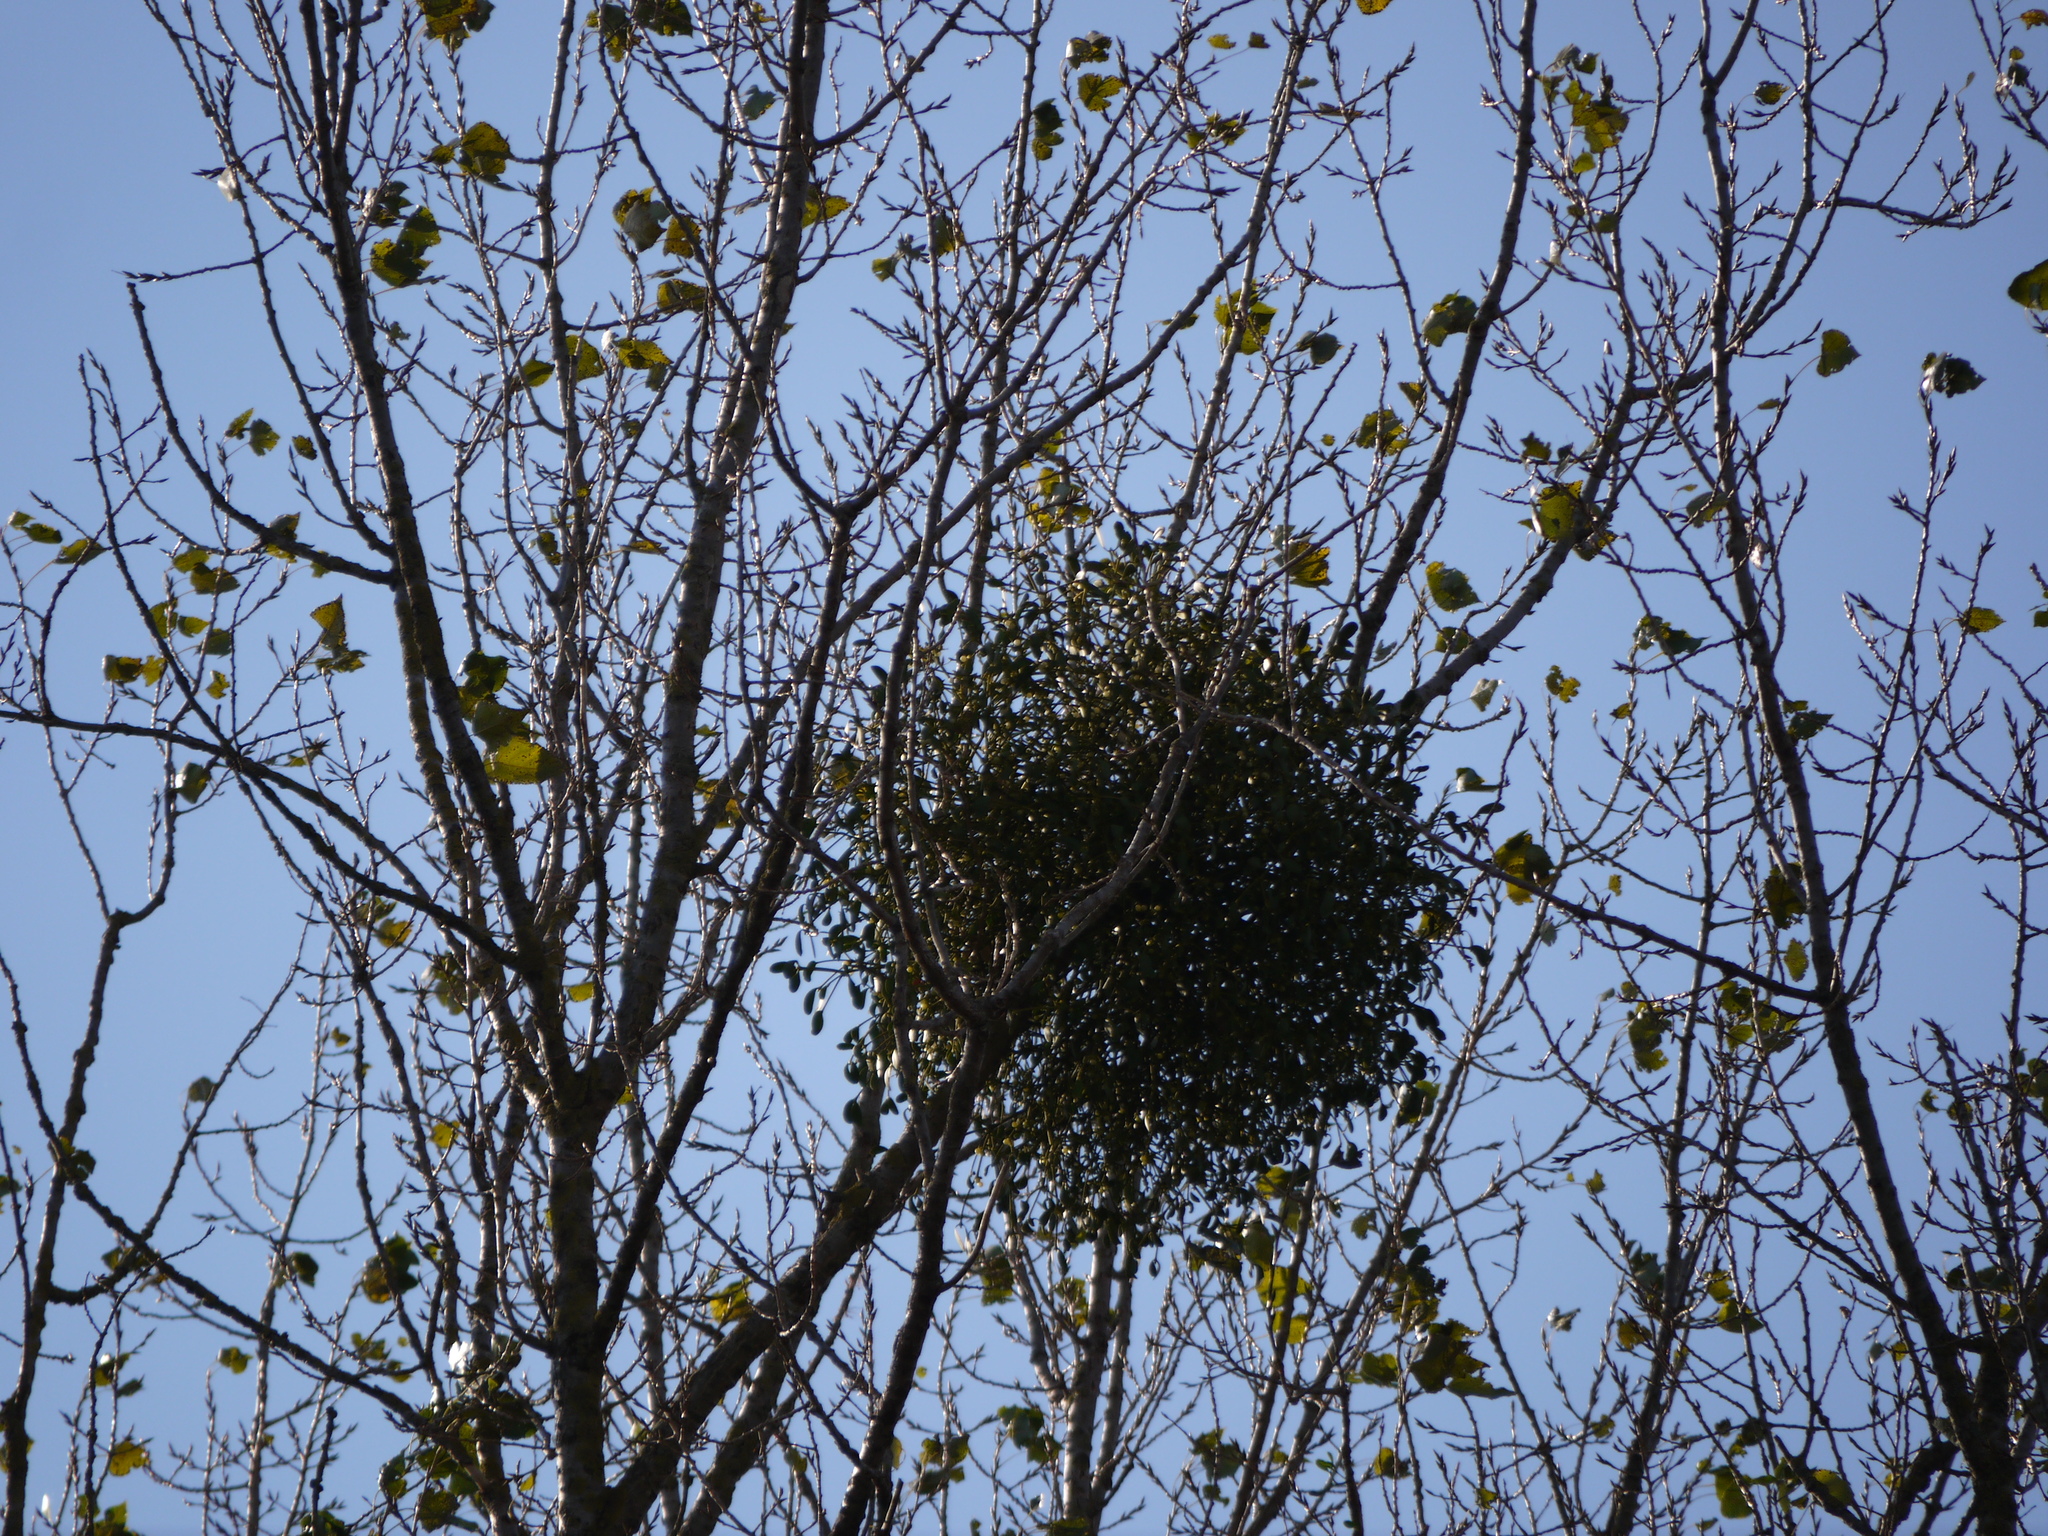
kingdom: Plantae
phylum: Tracheophyta
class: Magnoliopsida
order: Santalales
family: Viscaceae
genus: Viscum
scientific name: Viscum album
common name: Mistletoe
